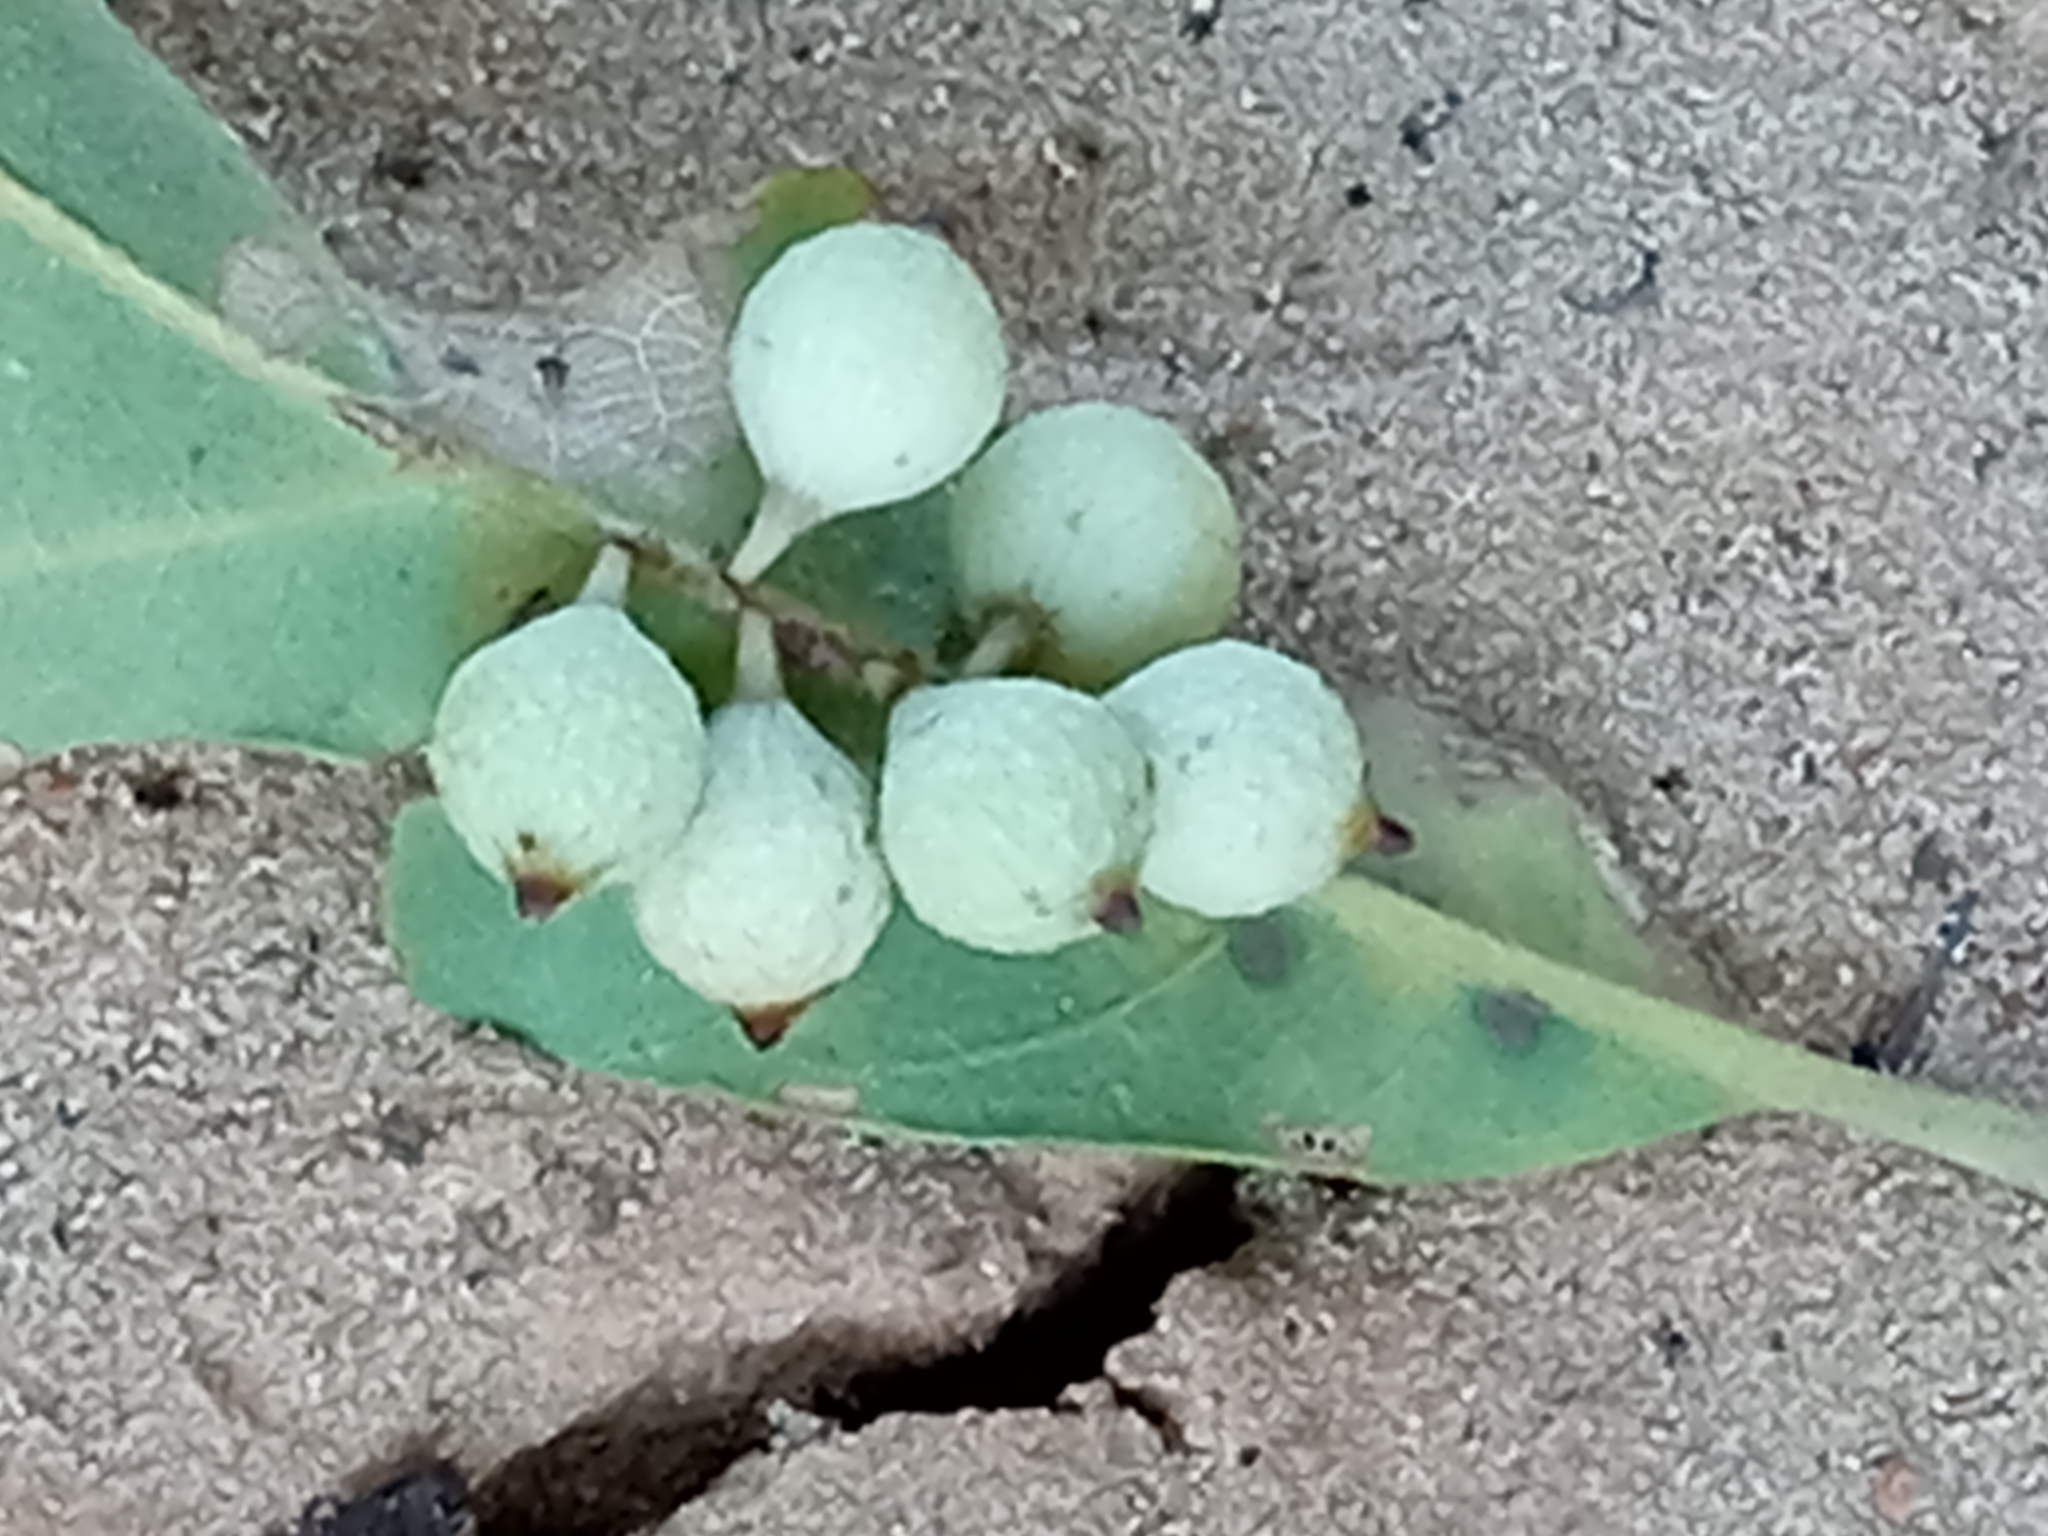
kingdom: Animalia
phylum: Arthropoda
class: Insecta
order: Hymenoptera
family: Cynipidae
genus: Andricus
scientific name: Andricus
